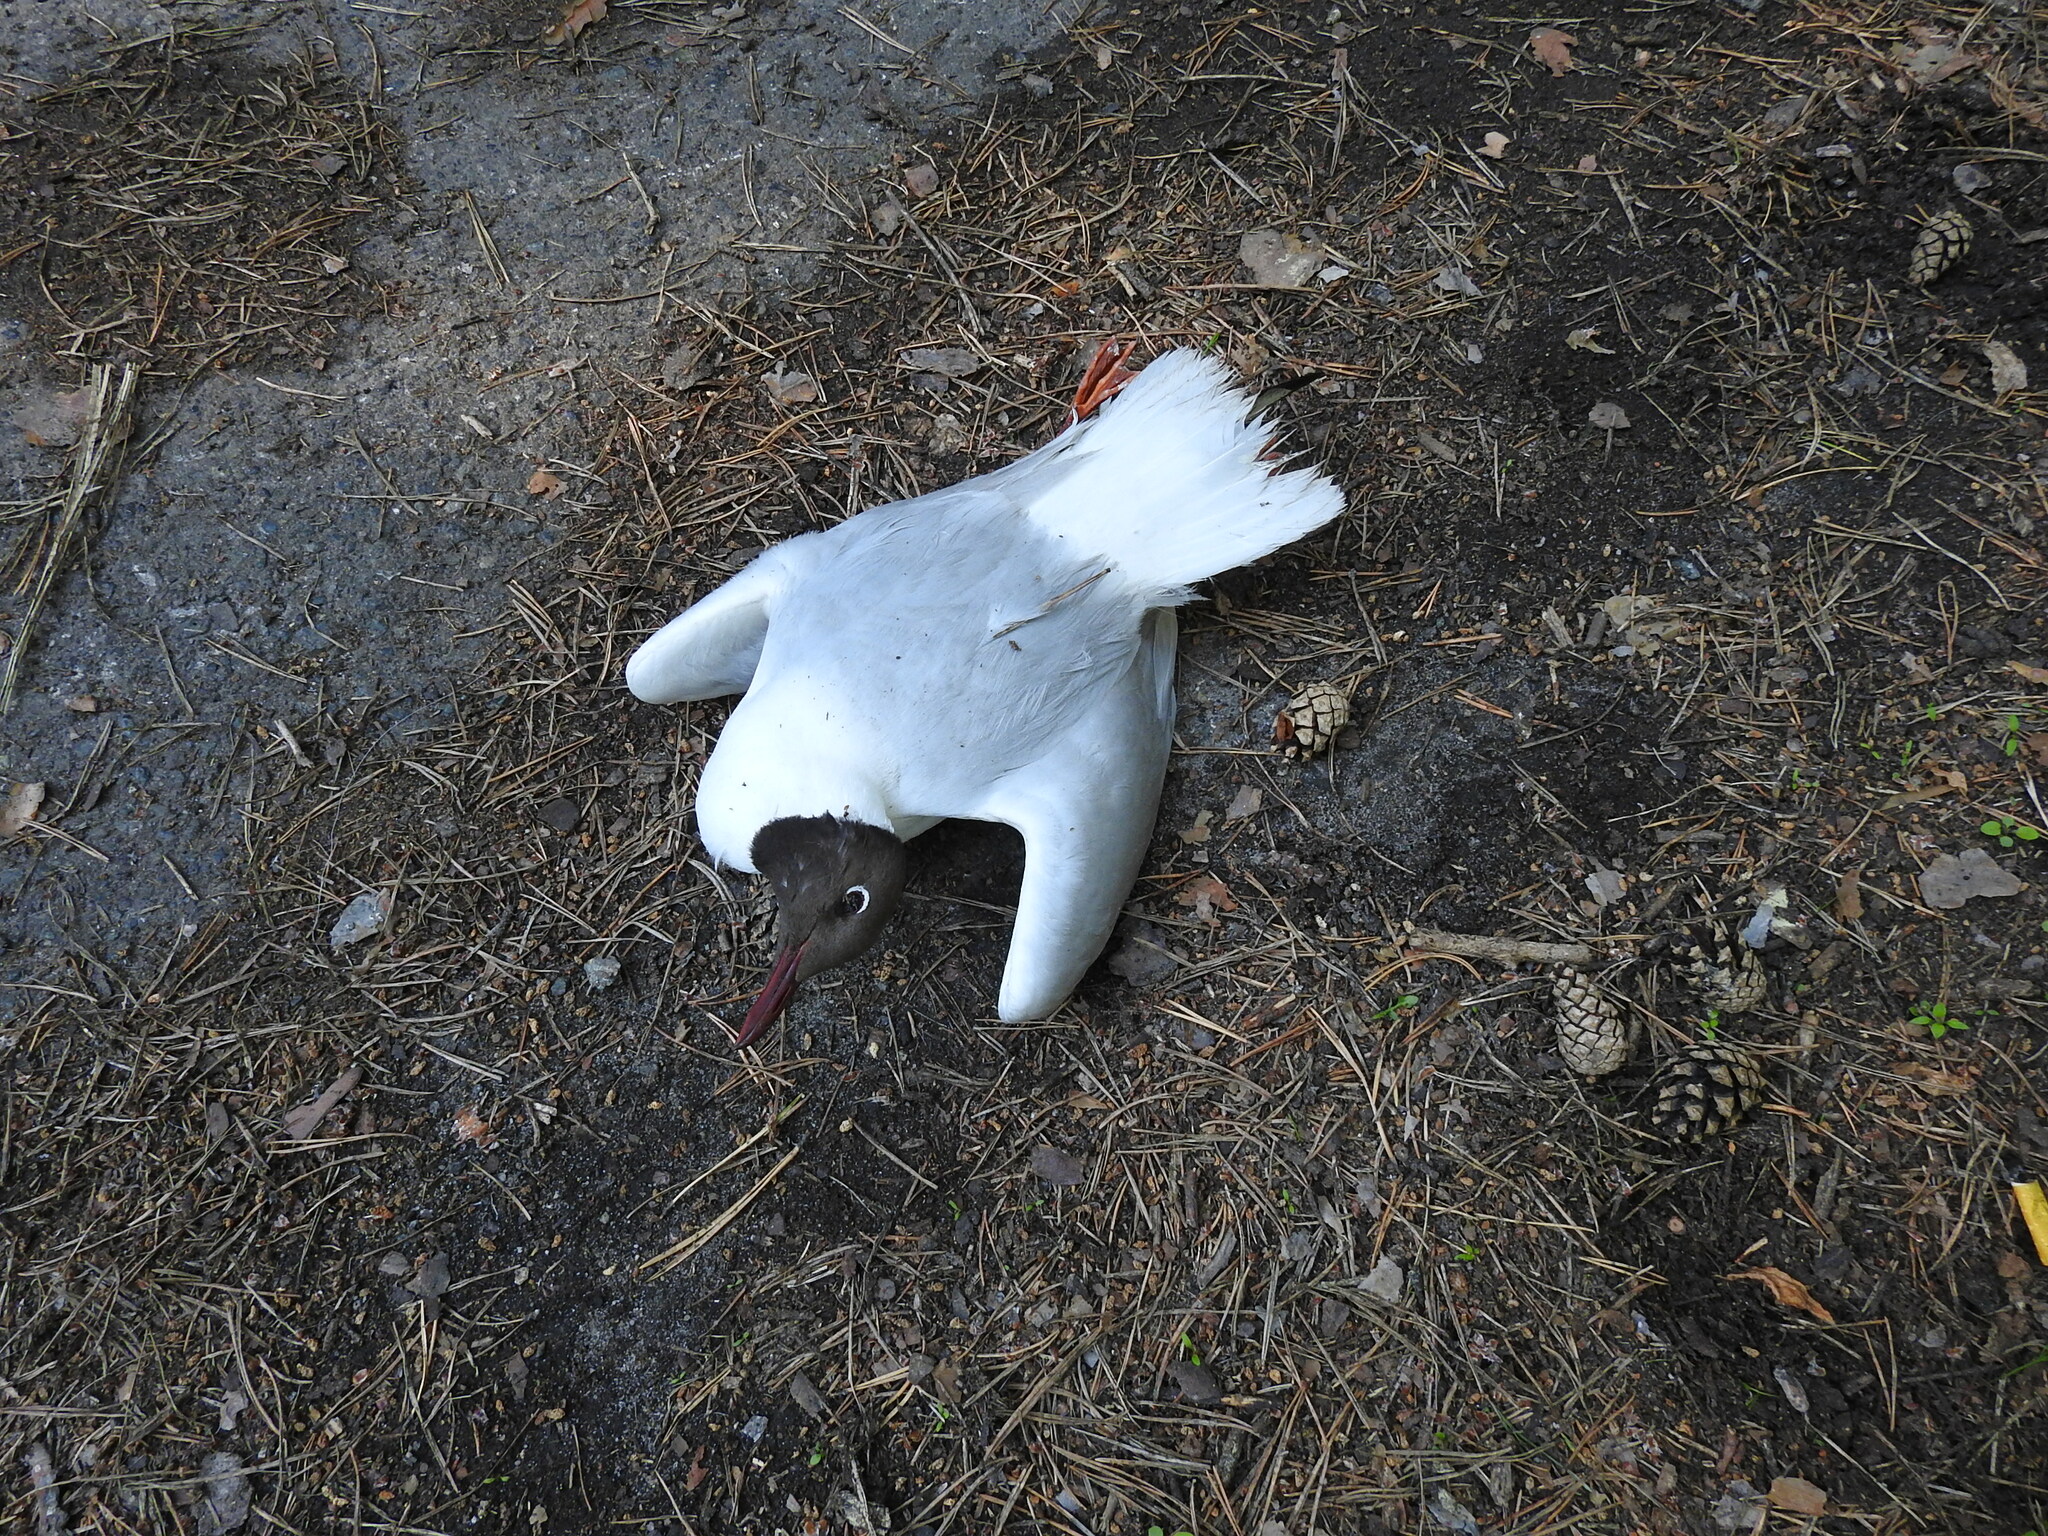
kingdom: Animalia
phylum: Chordata
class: Aves
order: Charadriiformes
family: Laridae
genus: Chroicocephalus
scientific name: Chroicocephalus ridibundus
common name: Black-headed gull
